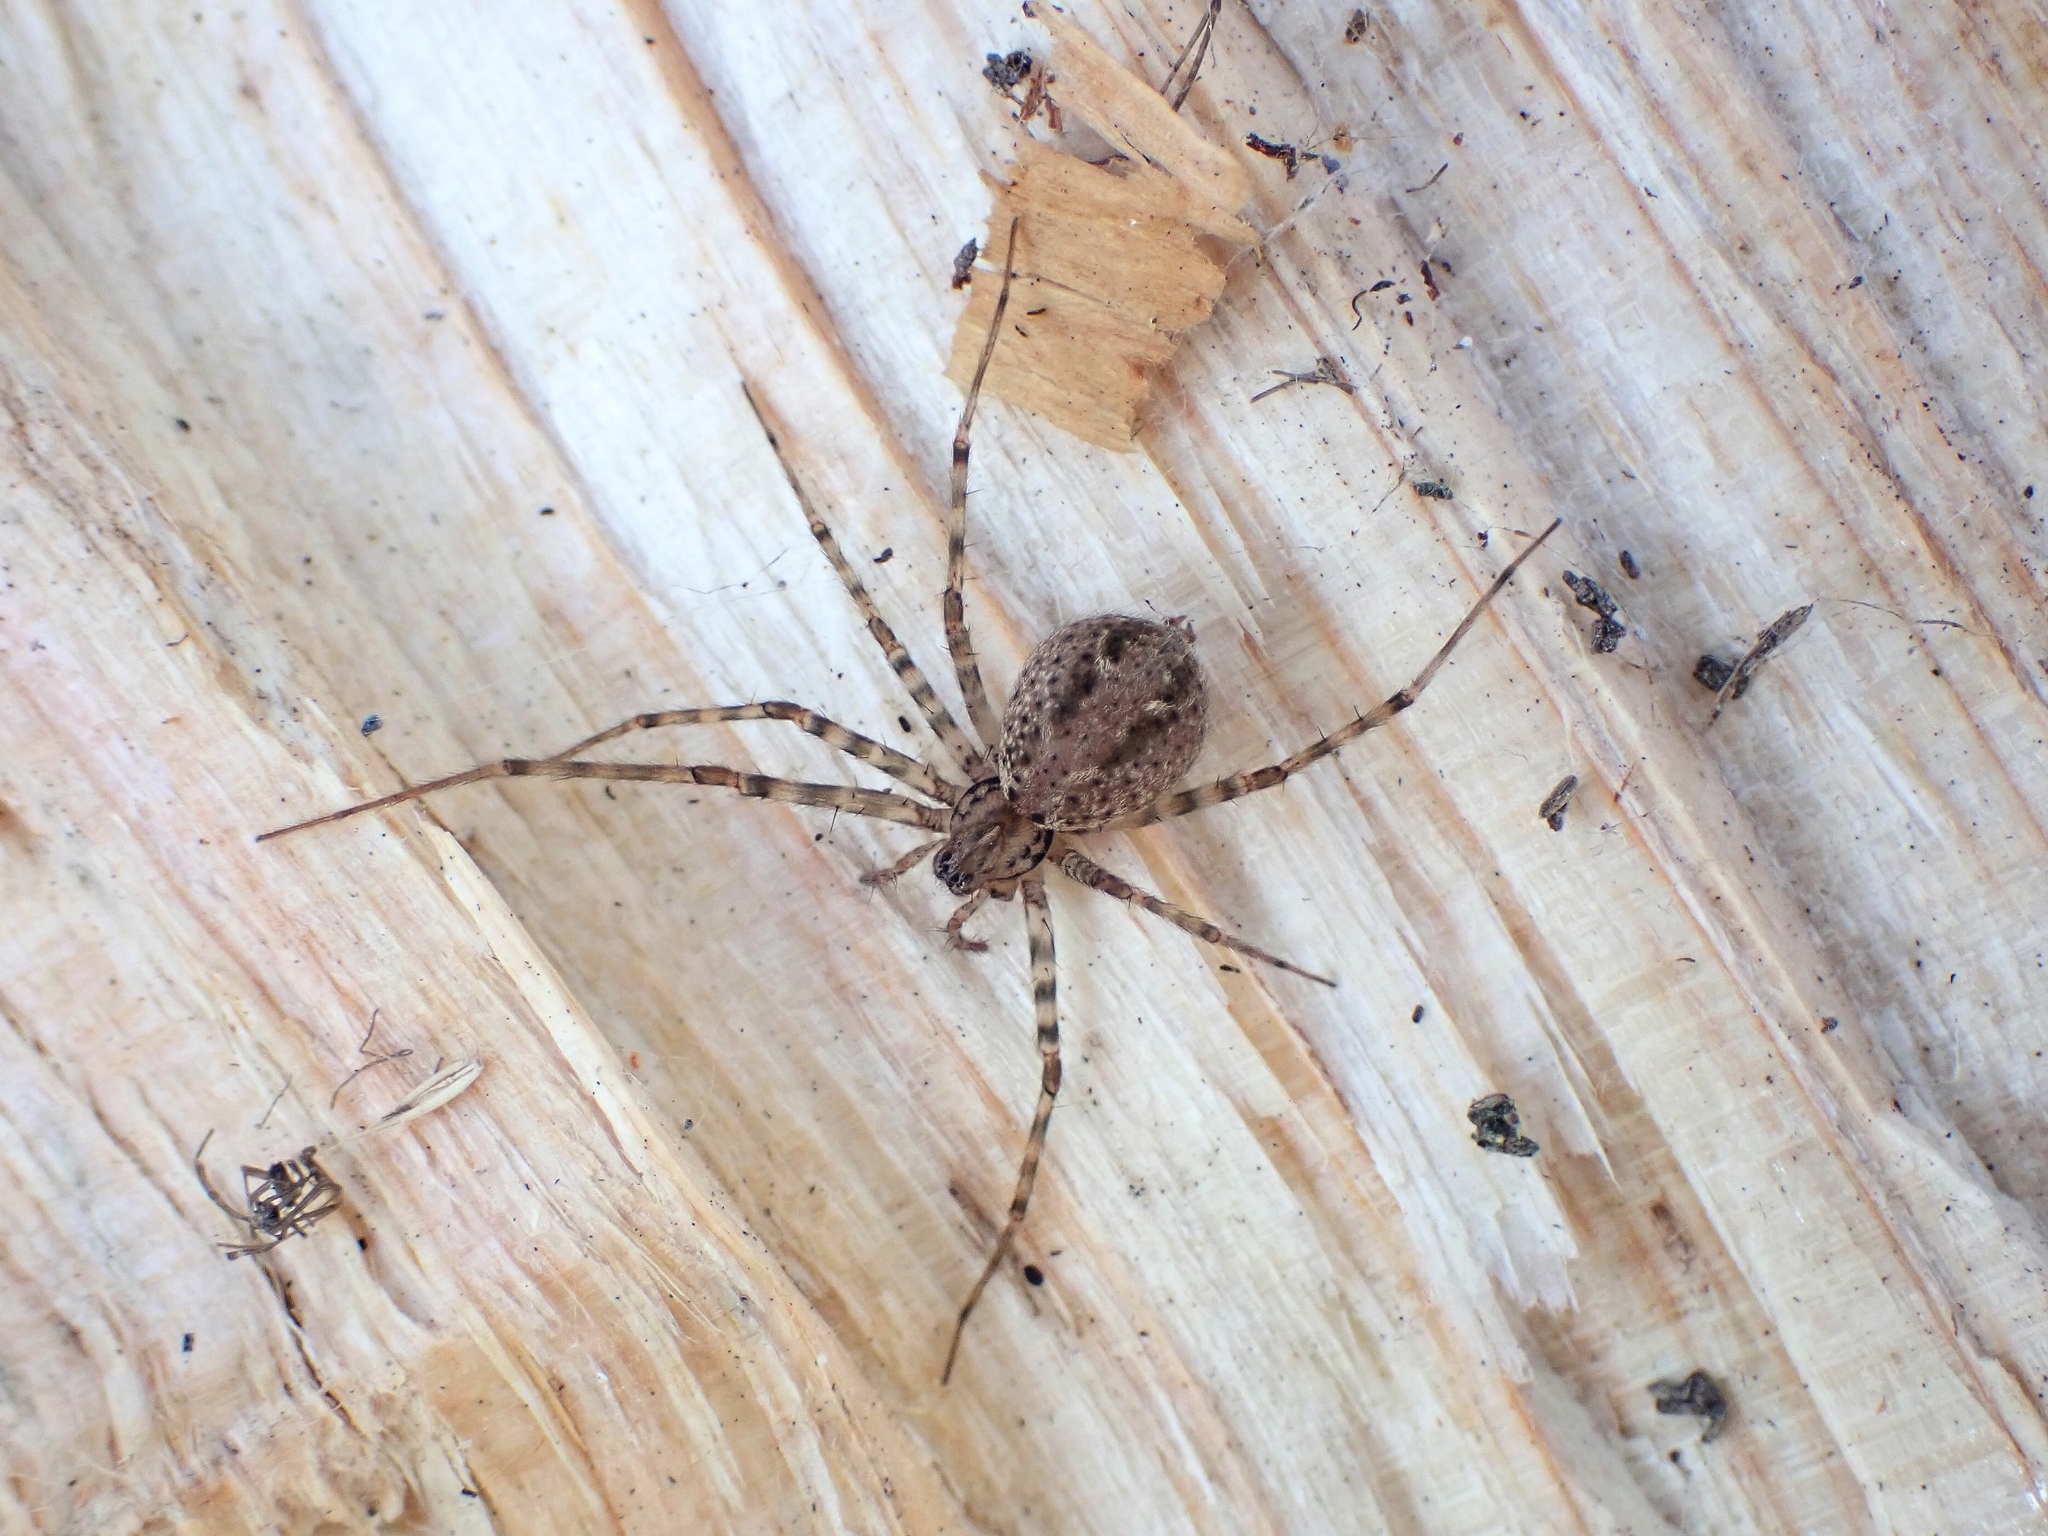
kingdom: Animalia
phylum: Arthropoda
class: Arachnida
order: Araneae
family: Stiphidiidae
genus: Stiphidion
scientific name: Stiphidion facetum
